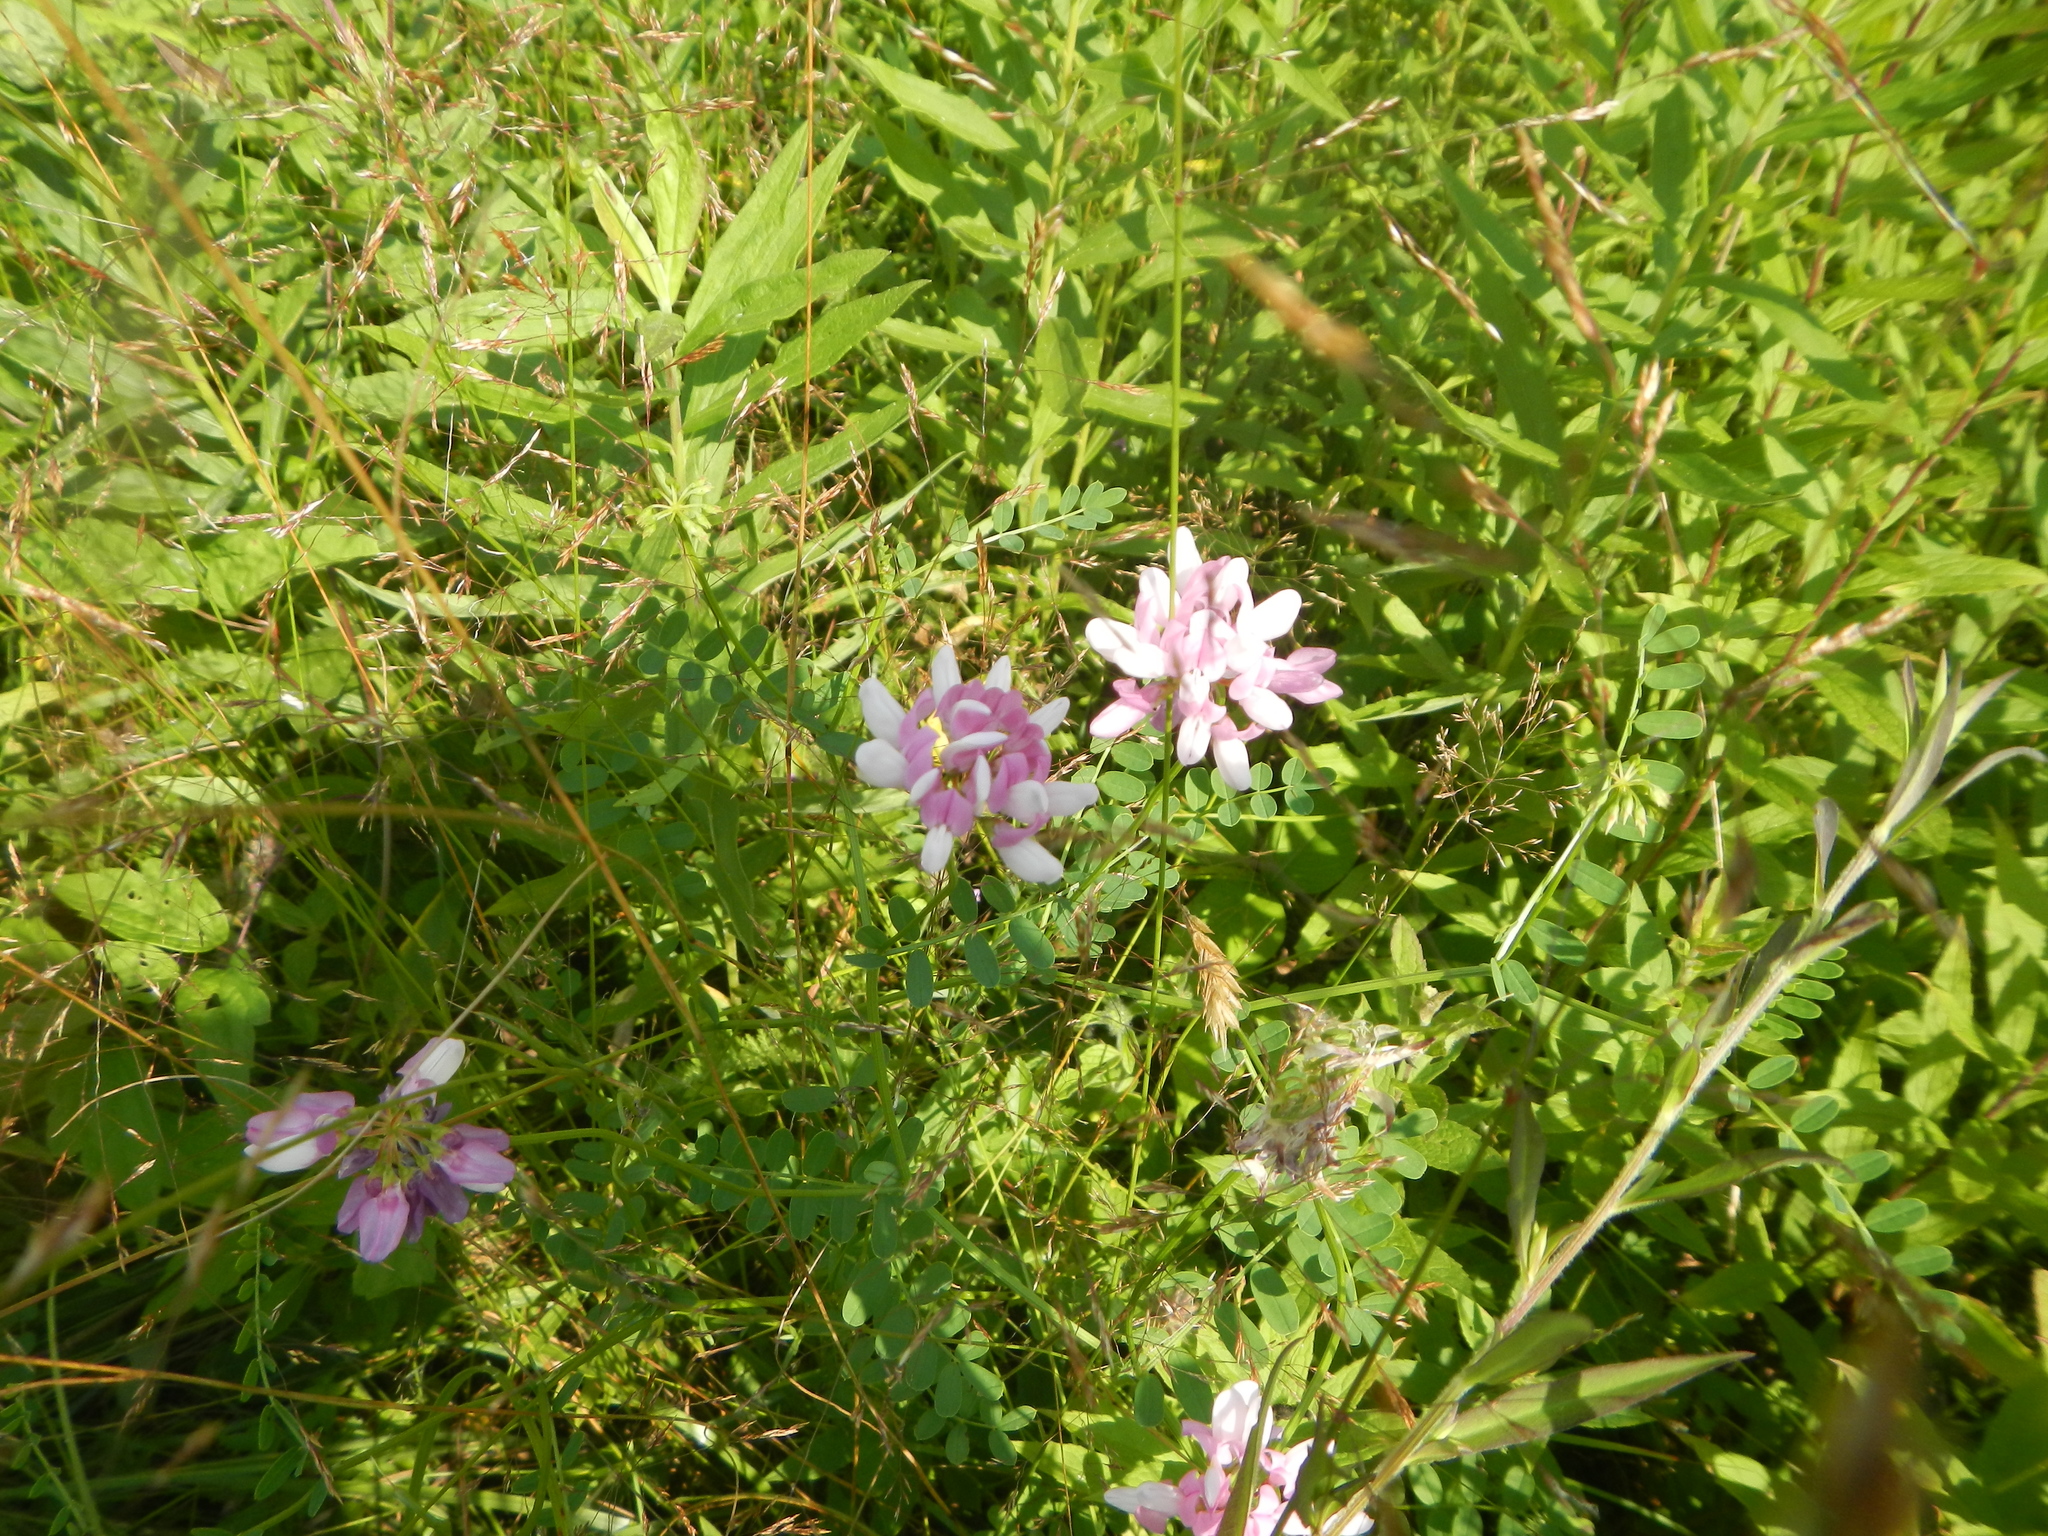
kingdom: Plantae
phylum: Tracheophyta
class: Magnoliopsida
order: Fabales
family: Fabaceae
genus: Coronilla
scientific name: Coronilla varia
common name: Crownvetch
